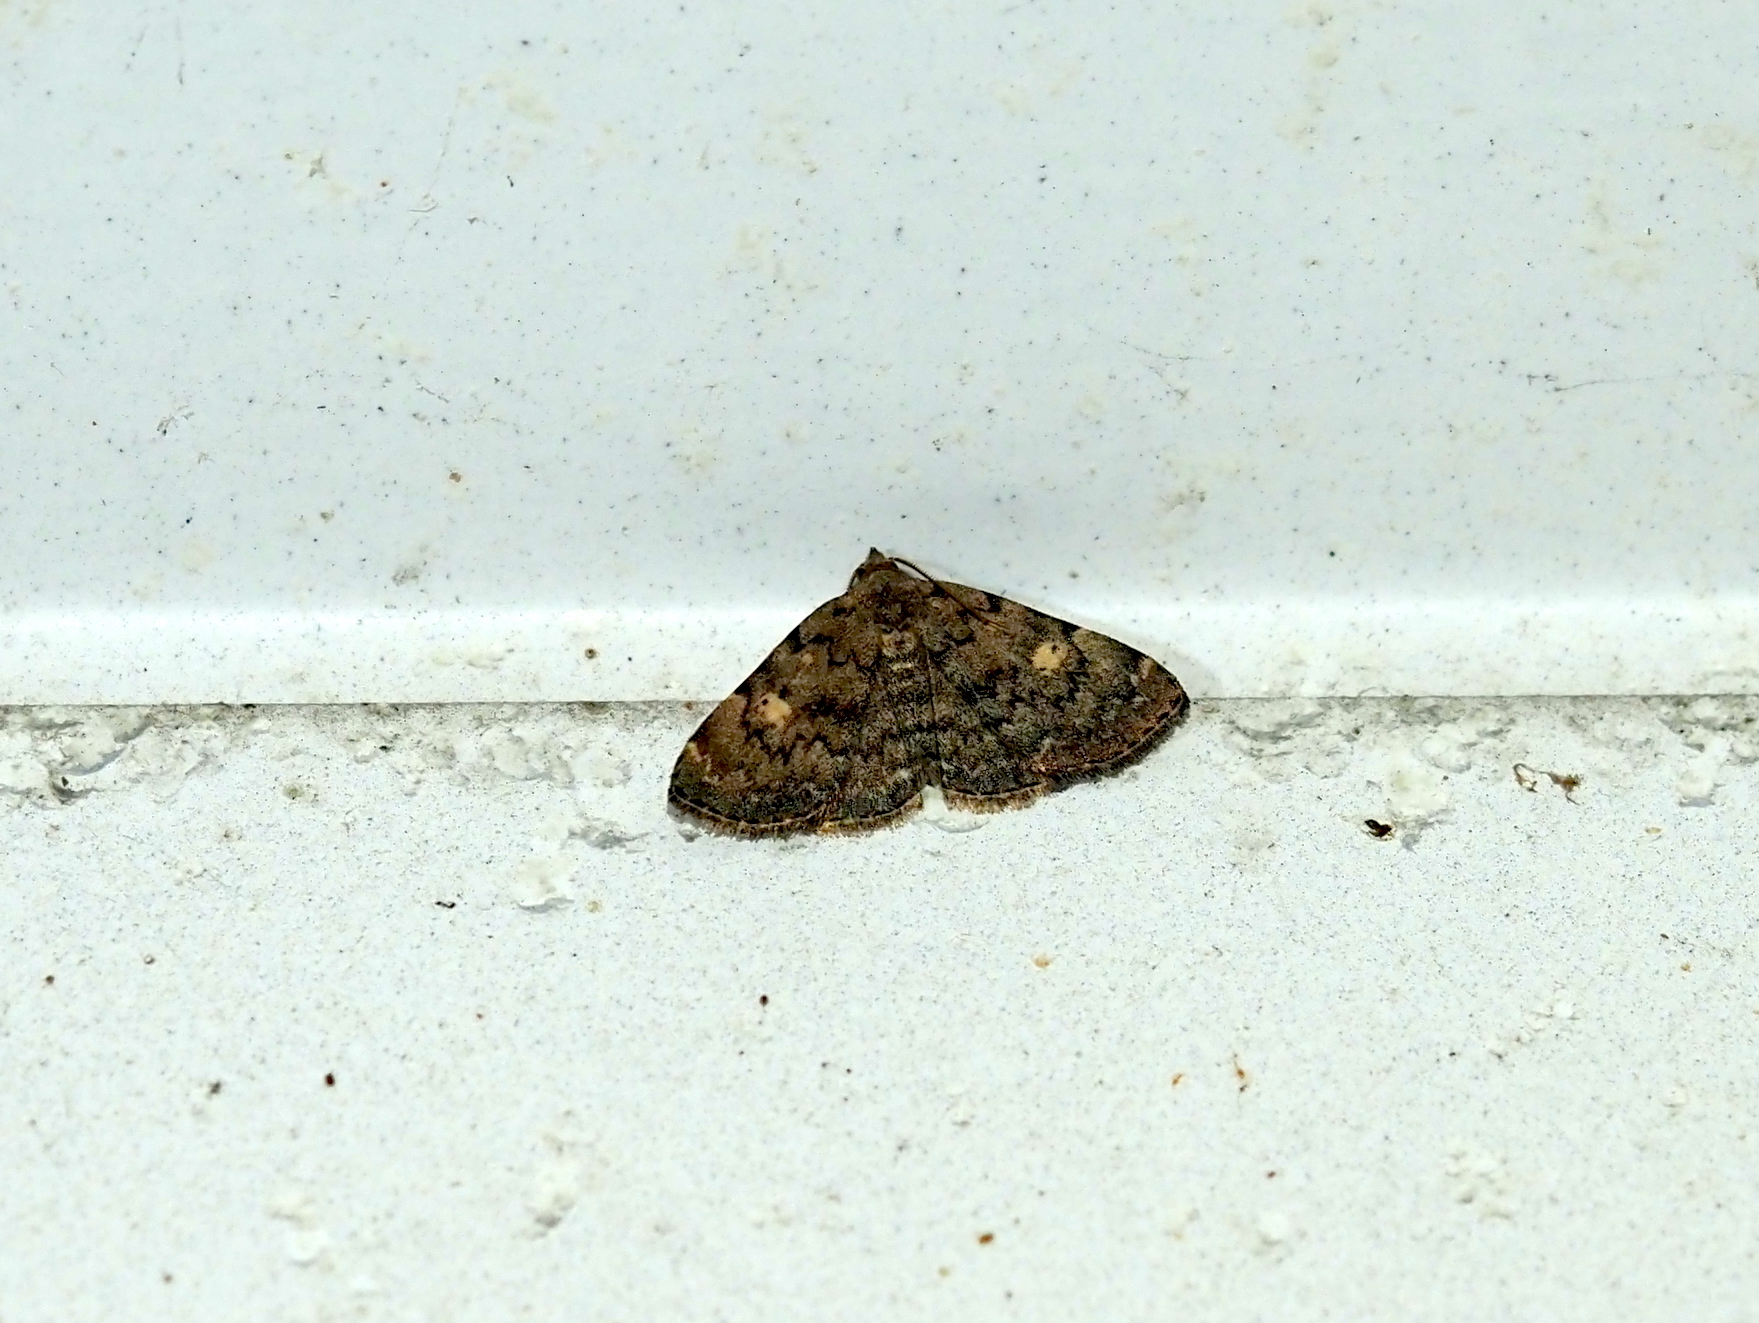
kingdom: Animalia
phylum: Arthropoda
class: Insecta
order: Lepidoptera
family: Erebidae
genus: Idia
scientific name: Idia aemula
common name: Common idia moth
